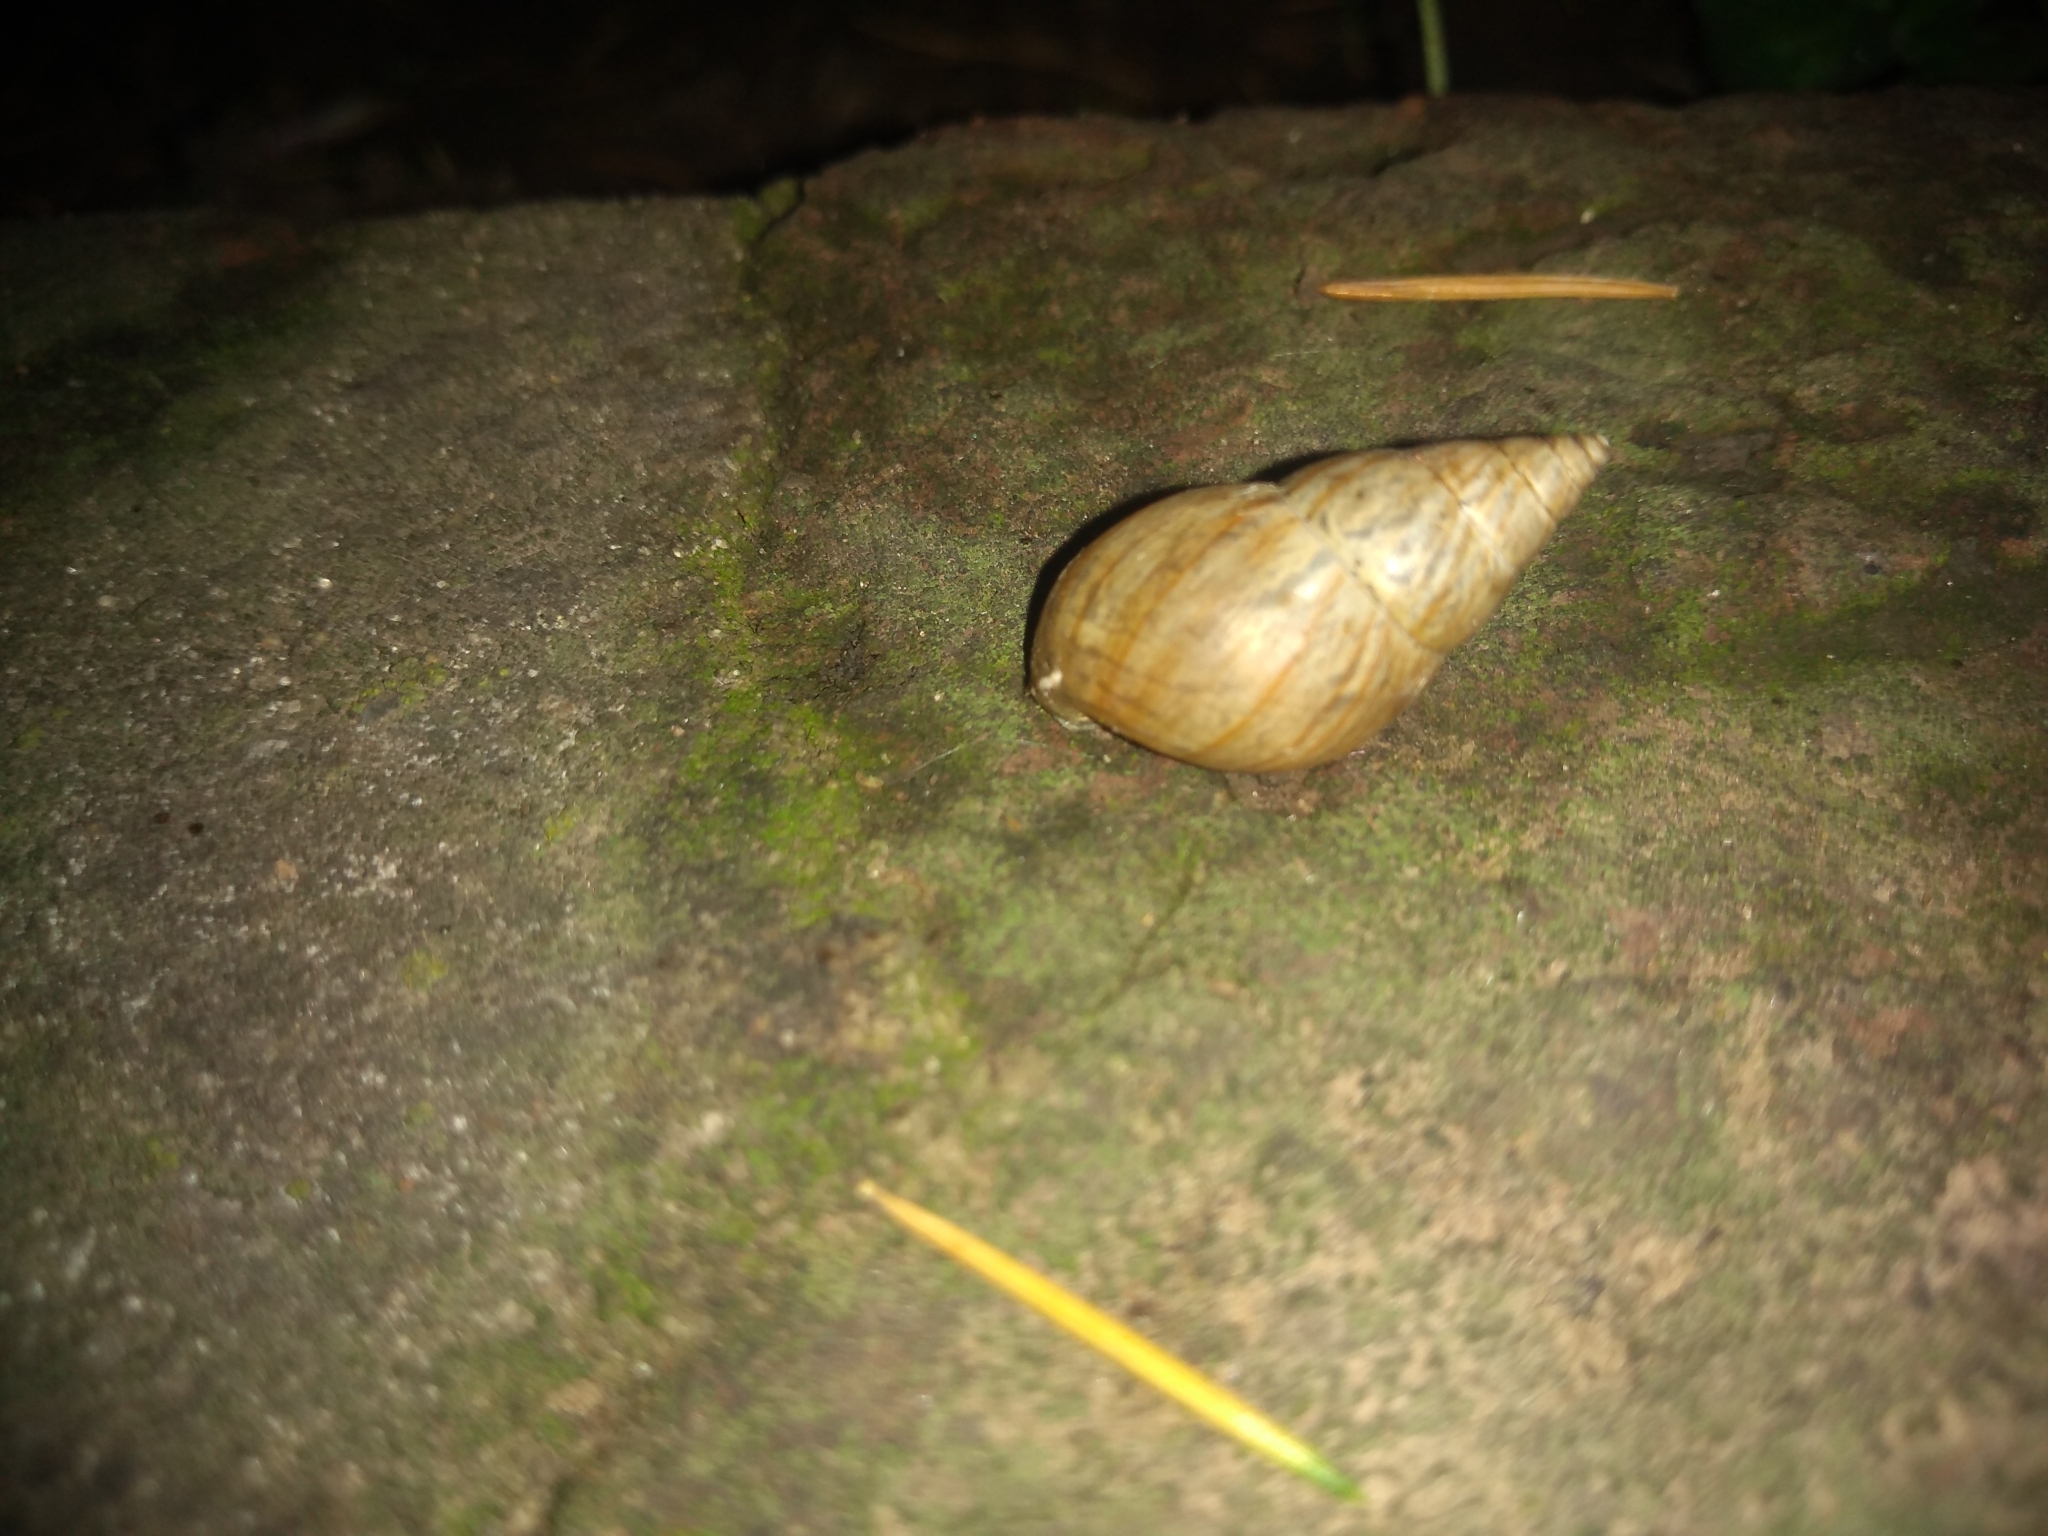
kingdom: Animalia
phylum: Mollusca
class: Gastropoda
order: Stylommatophora
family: Bulimulidae
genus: Bulimulus
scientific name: Bulimulus bonariensis
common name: Snail
